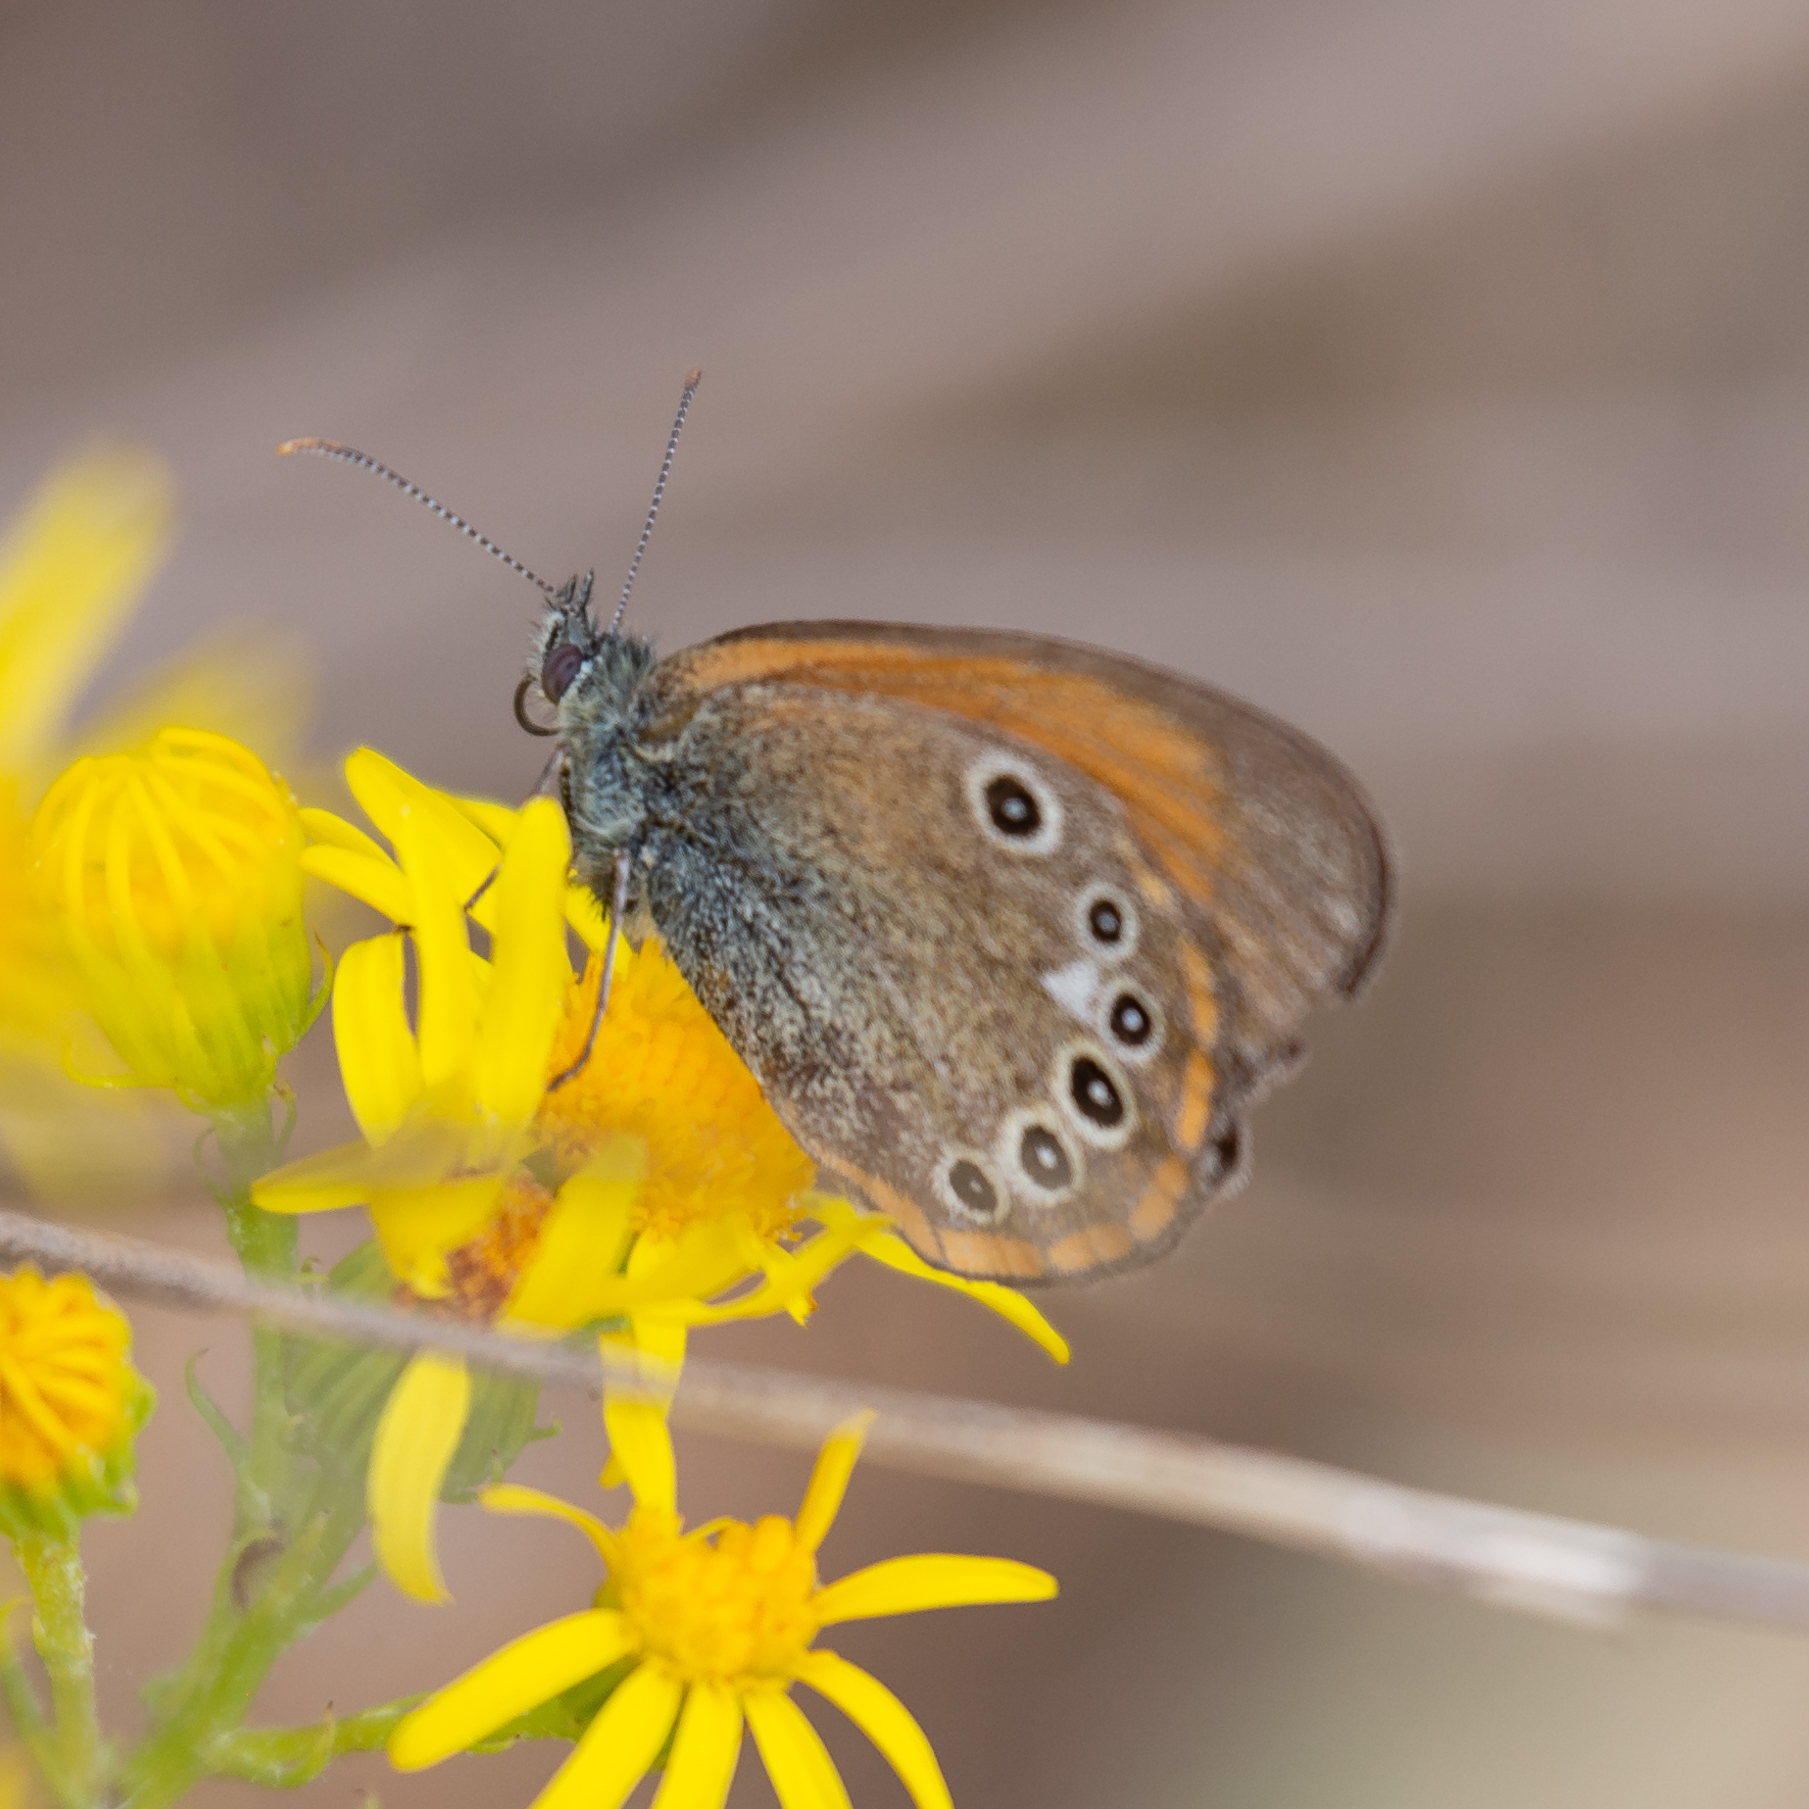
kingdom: Animalia
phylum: Arthropoda
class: Insecta
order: Lepidoptera
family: Nymphalidae
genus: Coenonympha
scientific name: Coenonympha iphis
